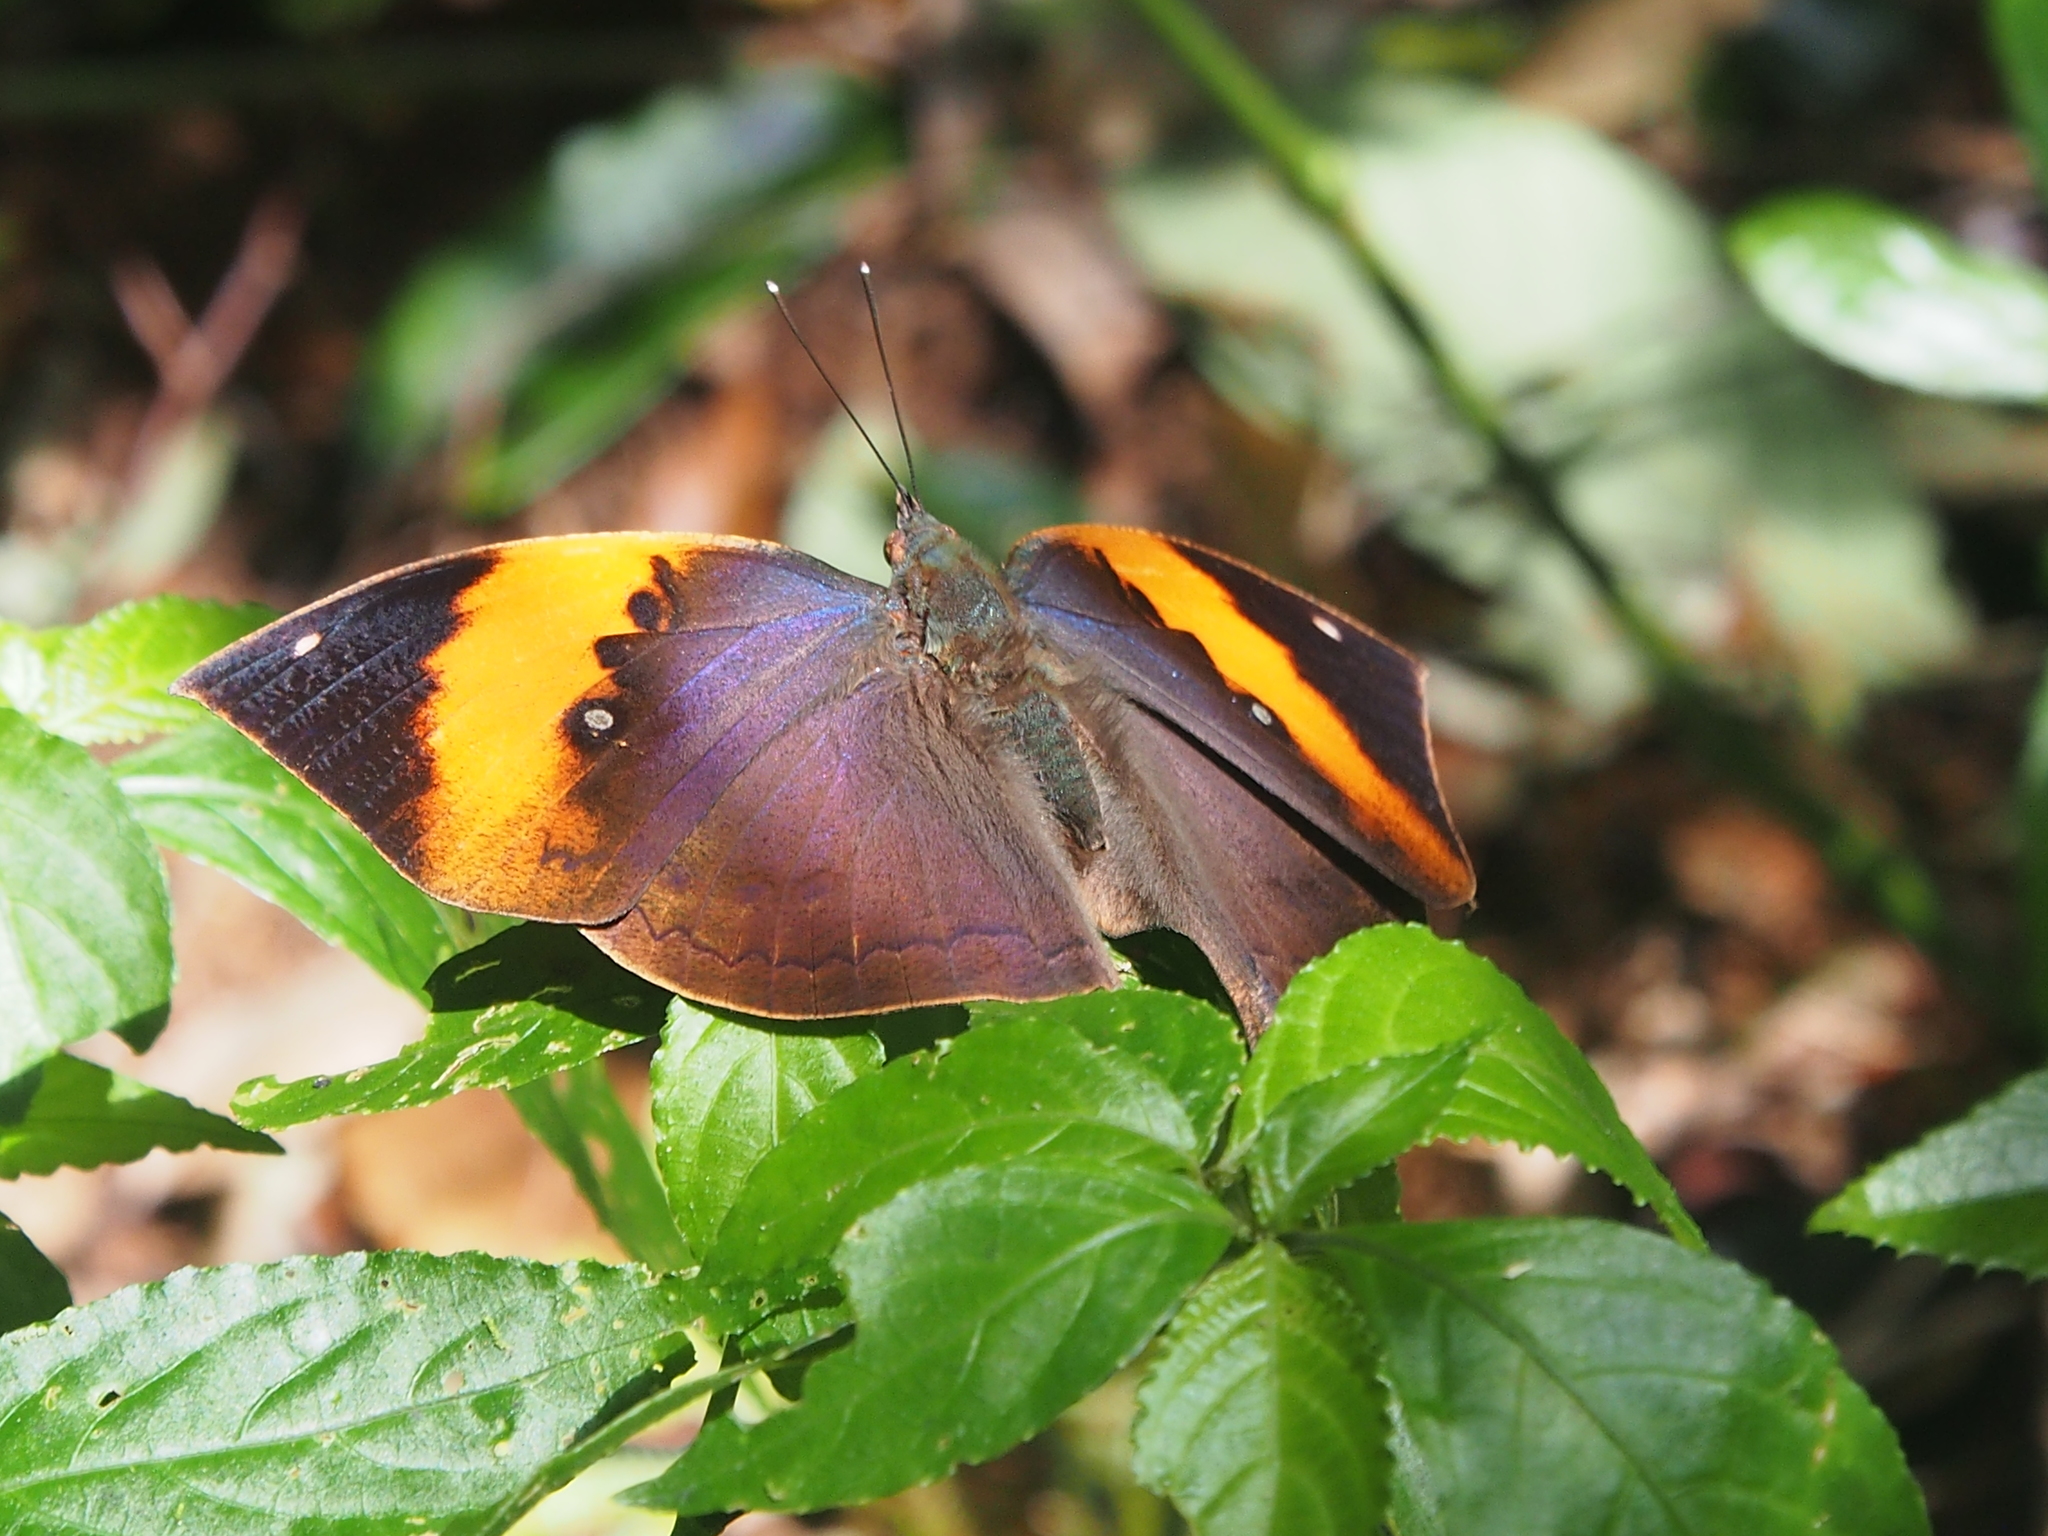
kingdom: Animalia
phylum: Arthropoda
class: Insecta
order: Lepidoptera
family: Nymphalidae
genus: Kallima
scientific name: Kallima inachus
